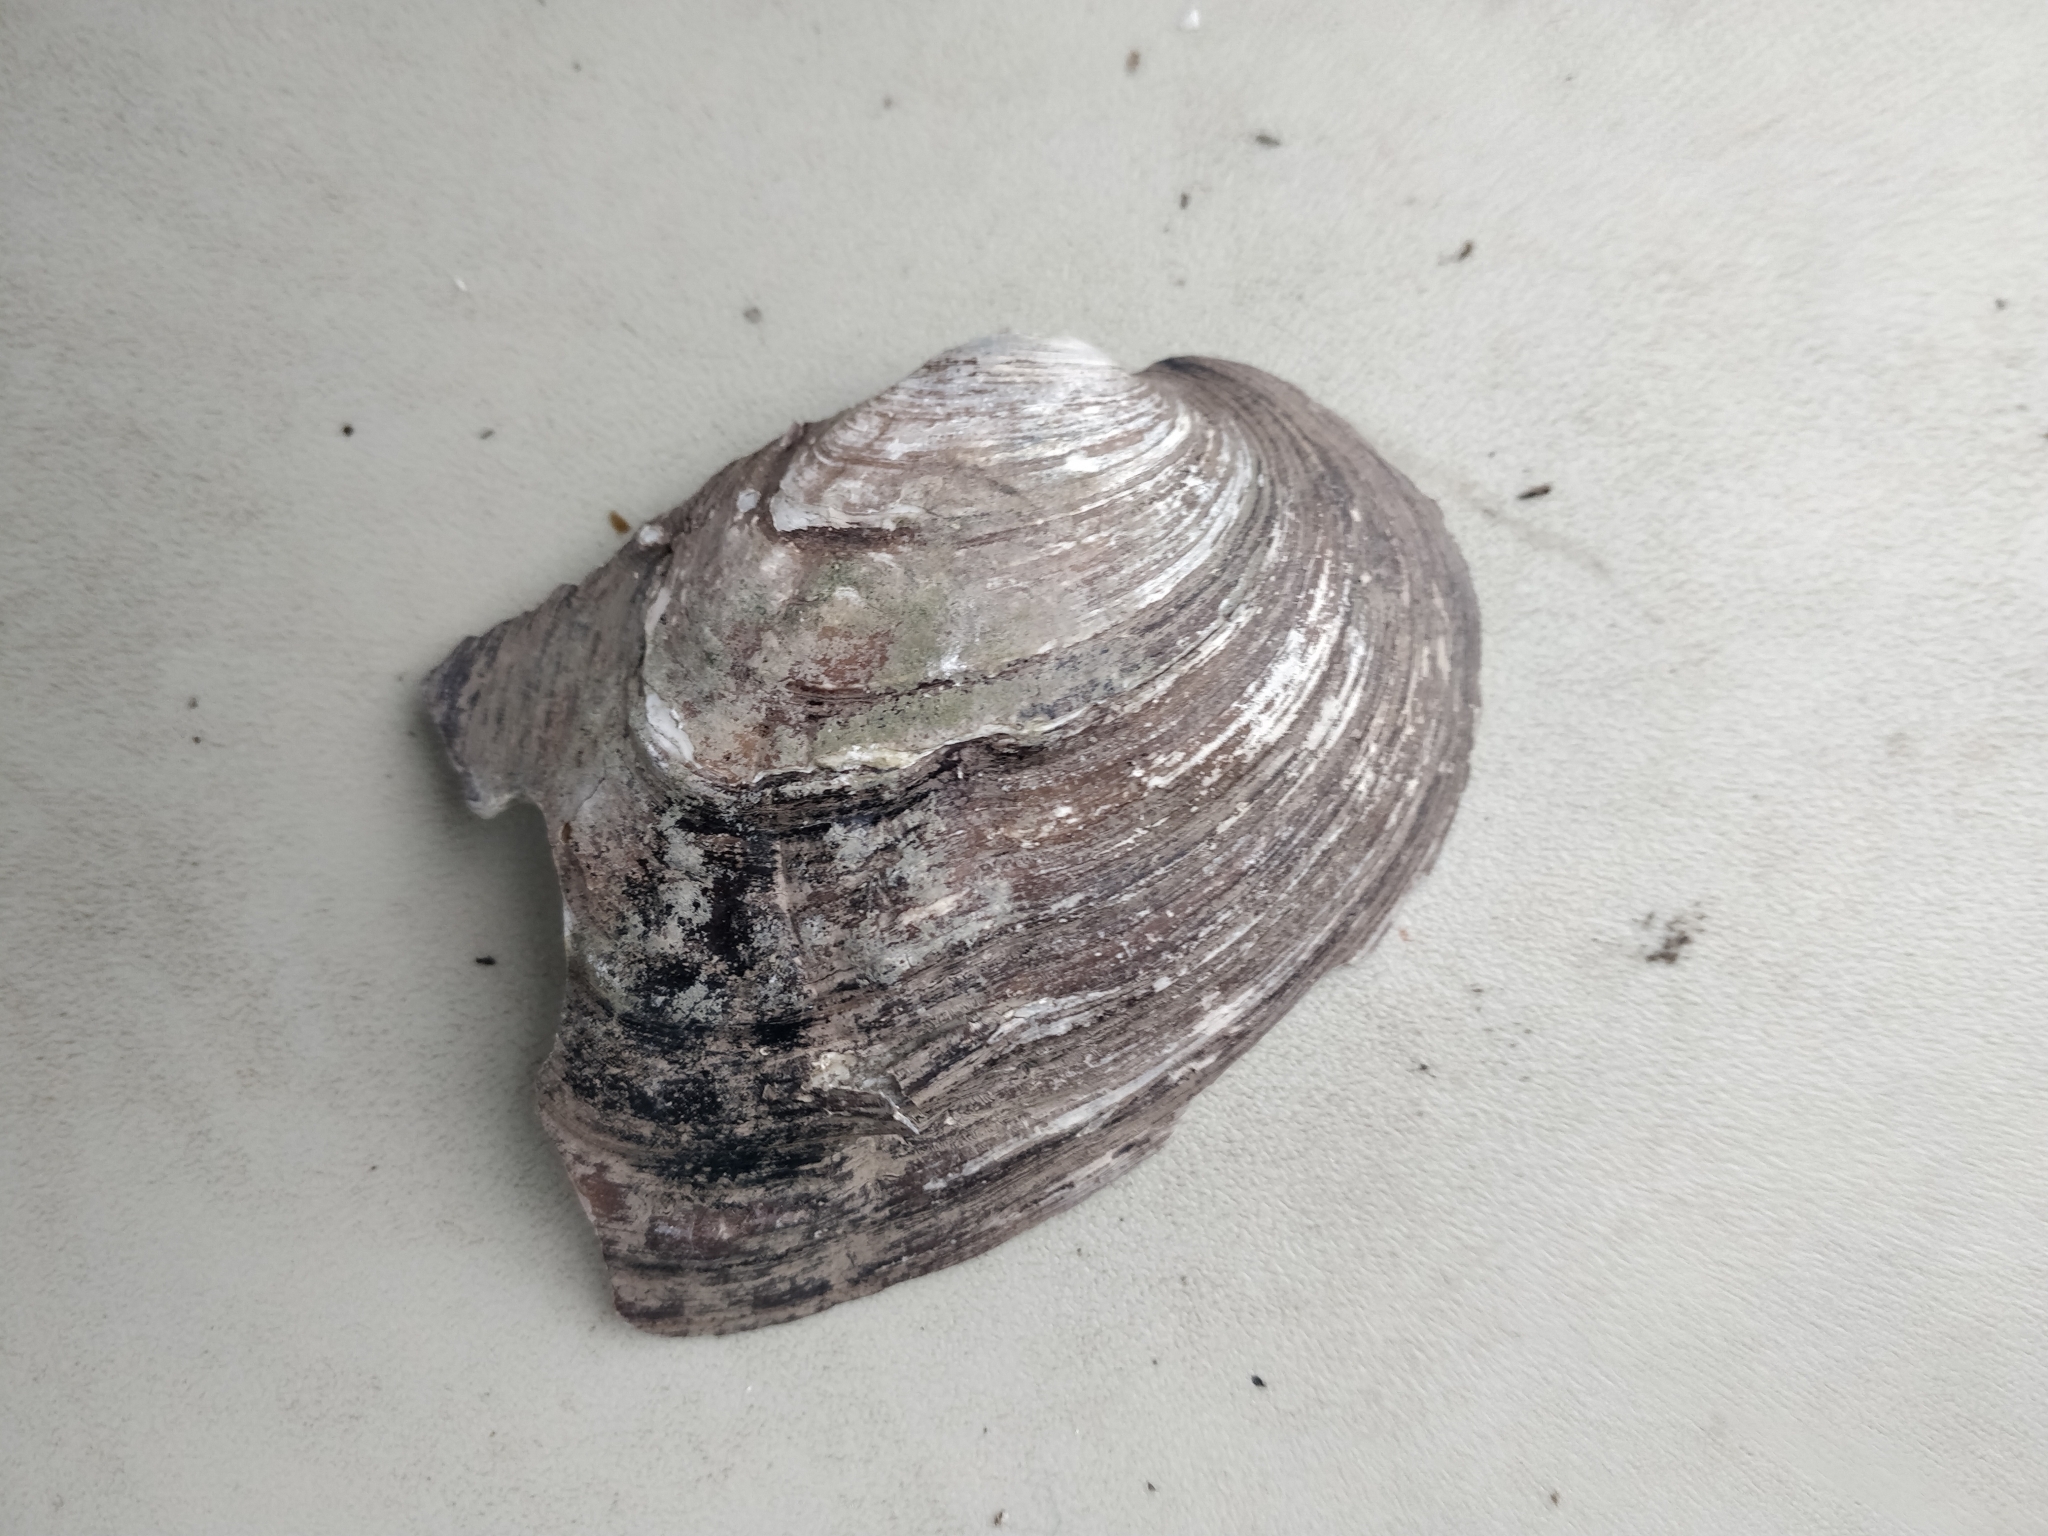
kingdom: Animalia
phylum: Mollusca
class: Bivalvia
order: Unionida
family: Unionidae
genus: Amblema
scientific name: Amblema plicata
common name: Threeridge
